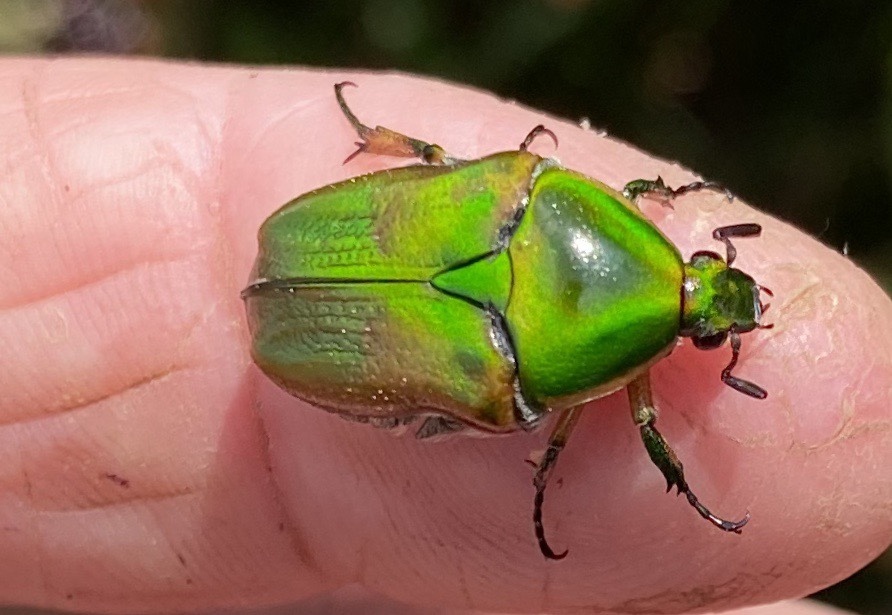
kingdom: Animalia
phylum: Arthropoda
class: Insecta
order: Coleoptera
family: Scarabaeidae
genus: Euphoria
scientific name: Euphoria fulgida
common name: Emerald euphoria
